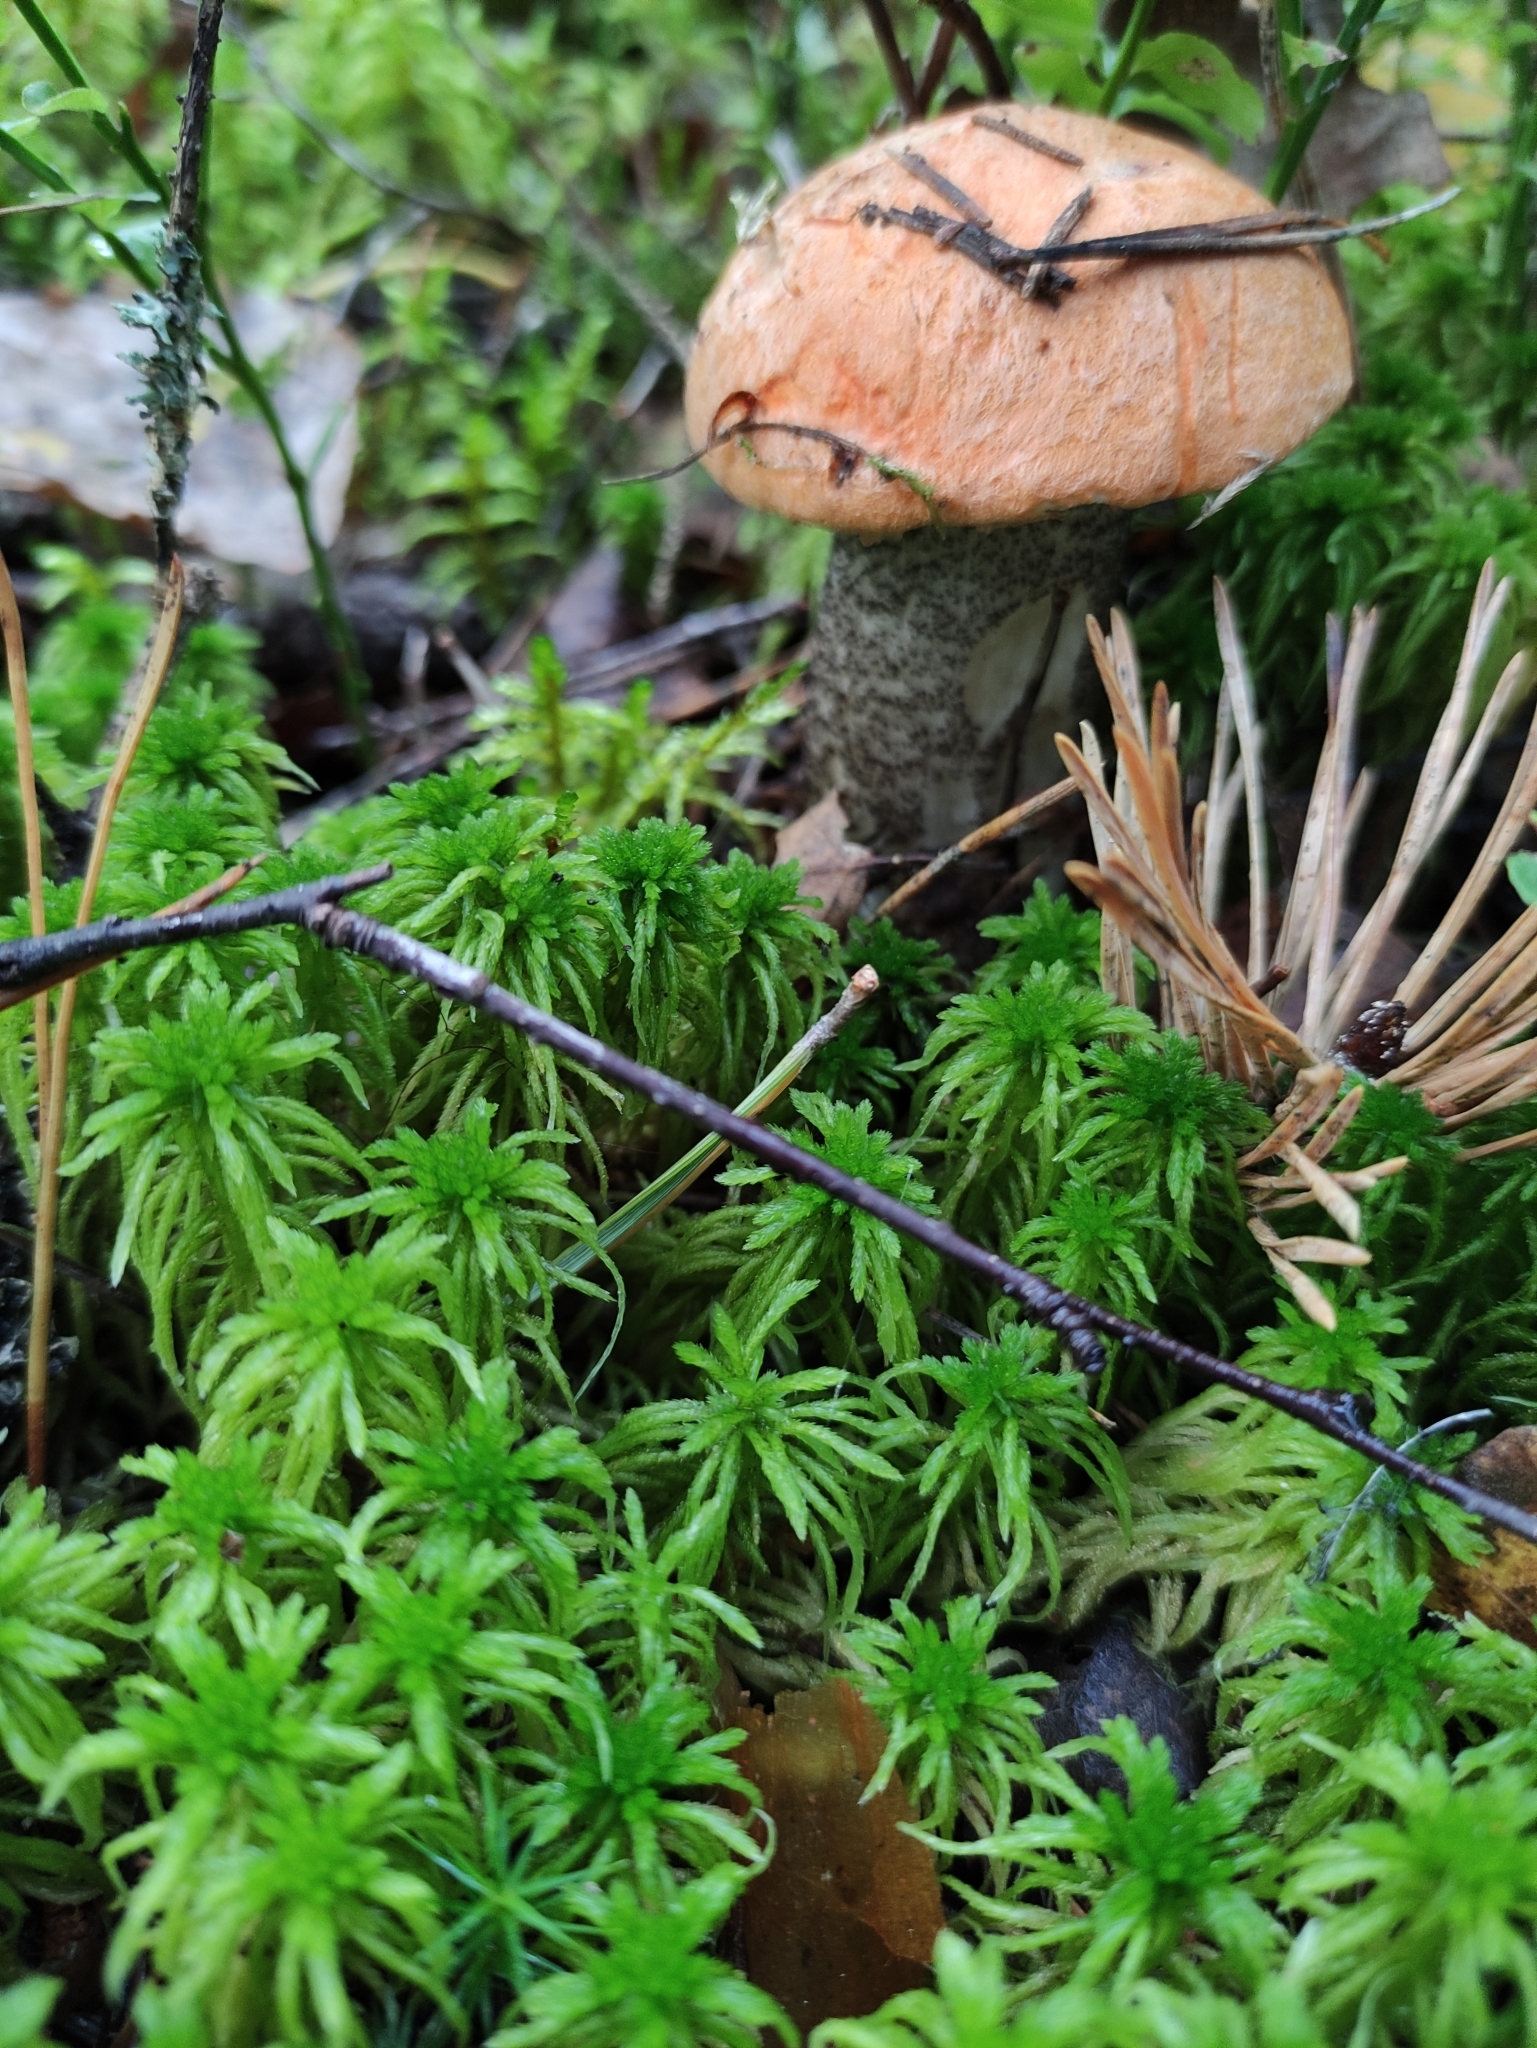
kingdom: Fungi
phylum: Basidiomycota
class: Agaricomycetes
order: Boletales
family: Boletaceae
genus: Leccinum
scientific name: Leccinum aurantiacum
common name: Orange bolete
